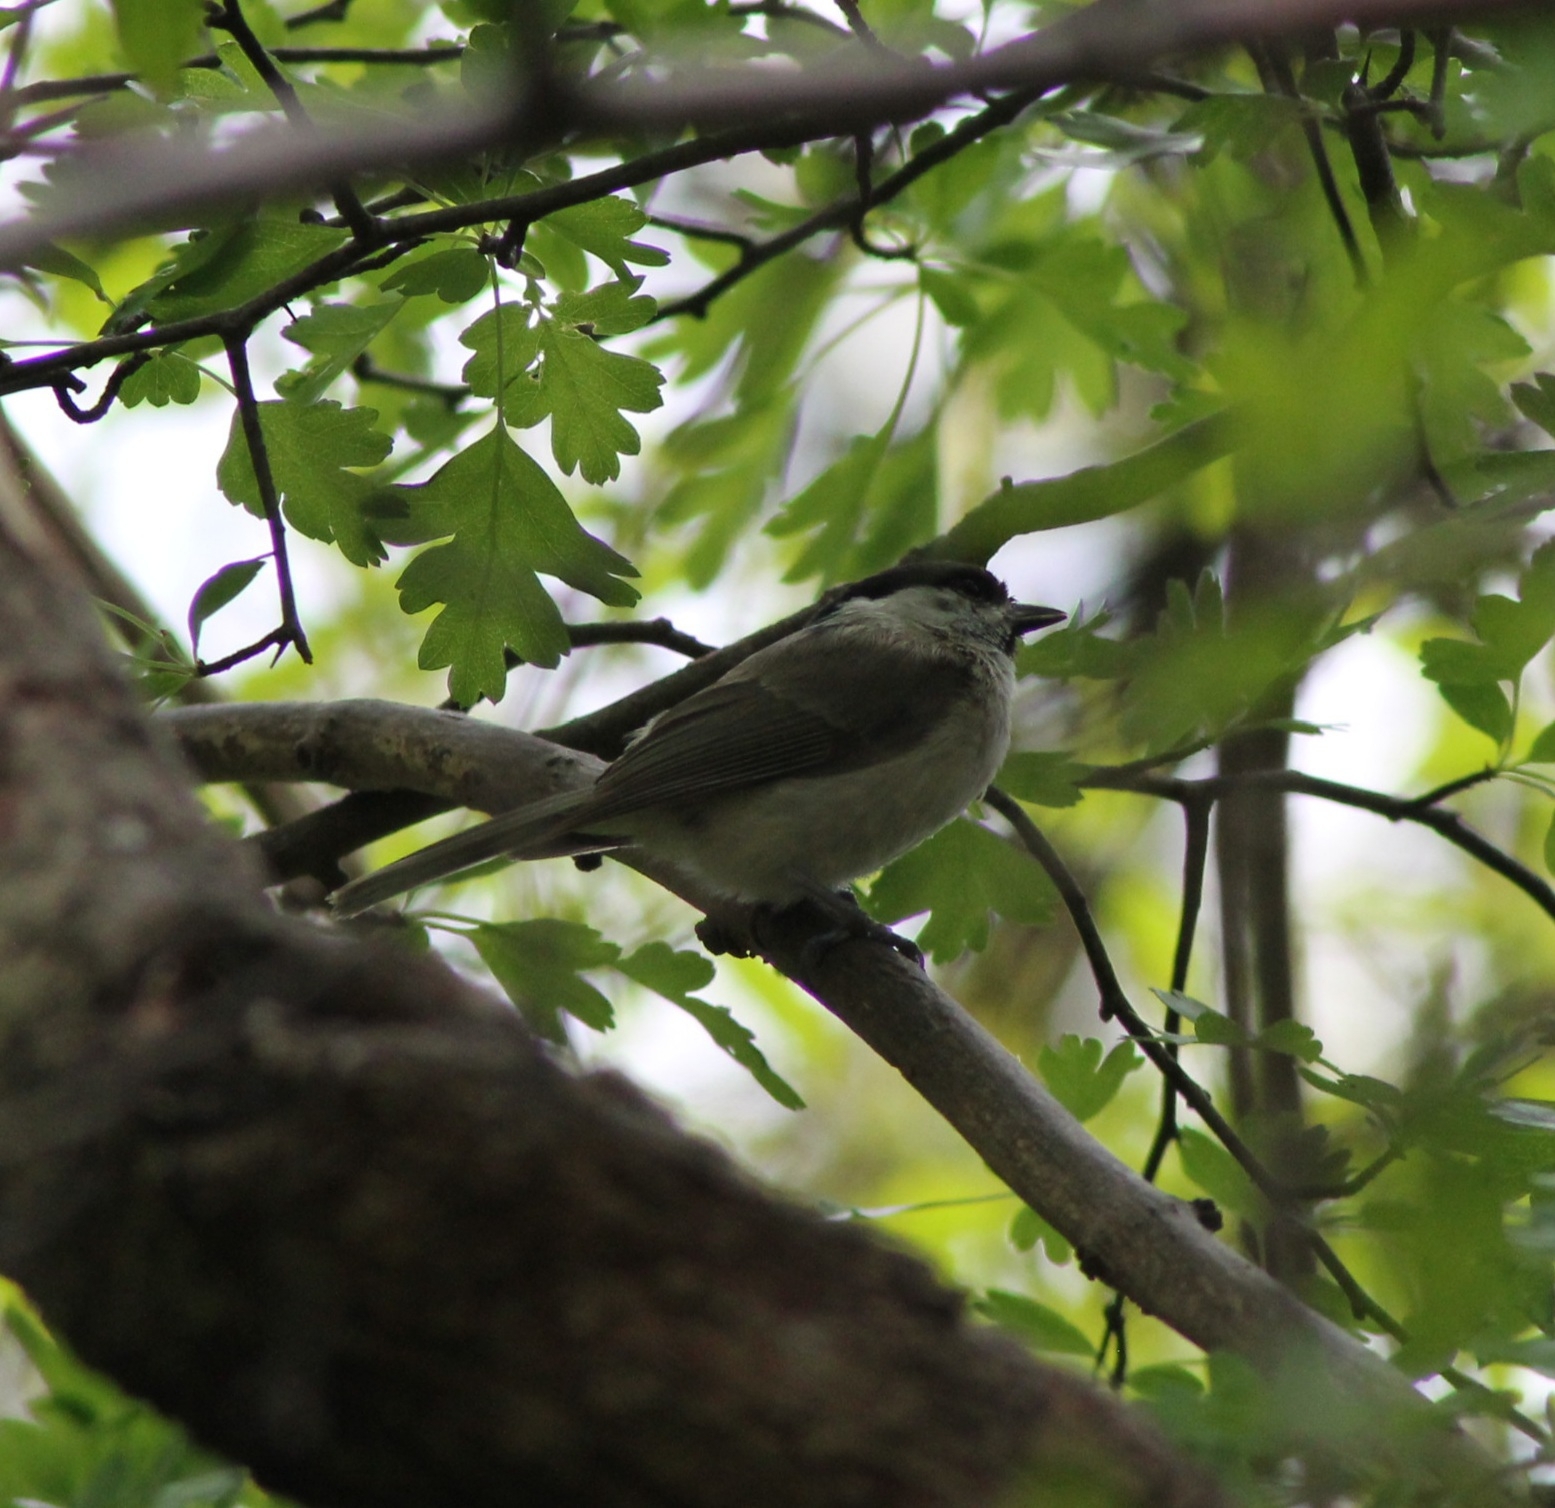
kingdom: Animalia
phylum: Chordata
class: Aves
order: Passeriformes
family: Paridae
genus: Poecile
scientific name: Poecile palustris
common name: Marsh tit
